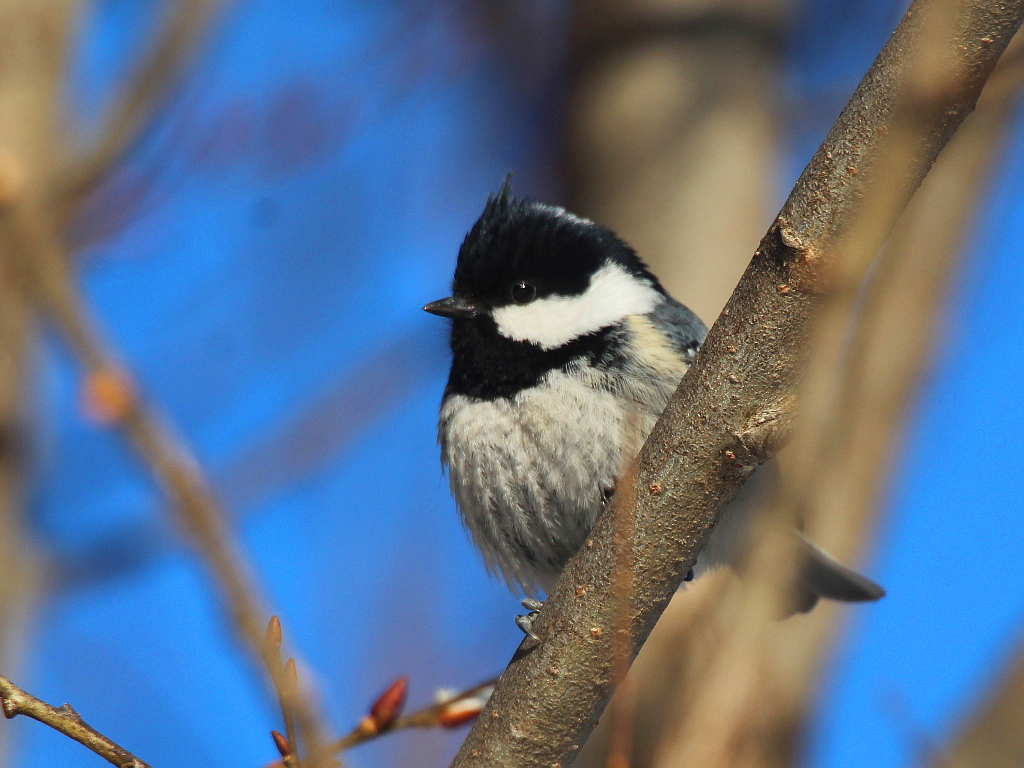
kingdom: Animalia
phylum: Chordata
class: Aves
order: Passeriformes
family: Paridae
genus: Periparus
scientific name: Periparus ater
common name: Coal tit
